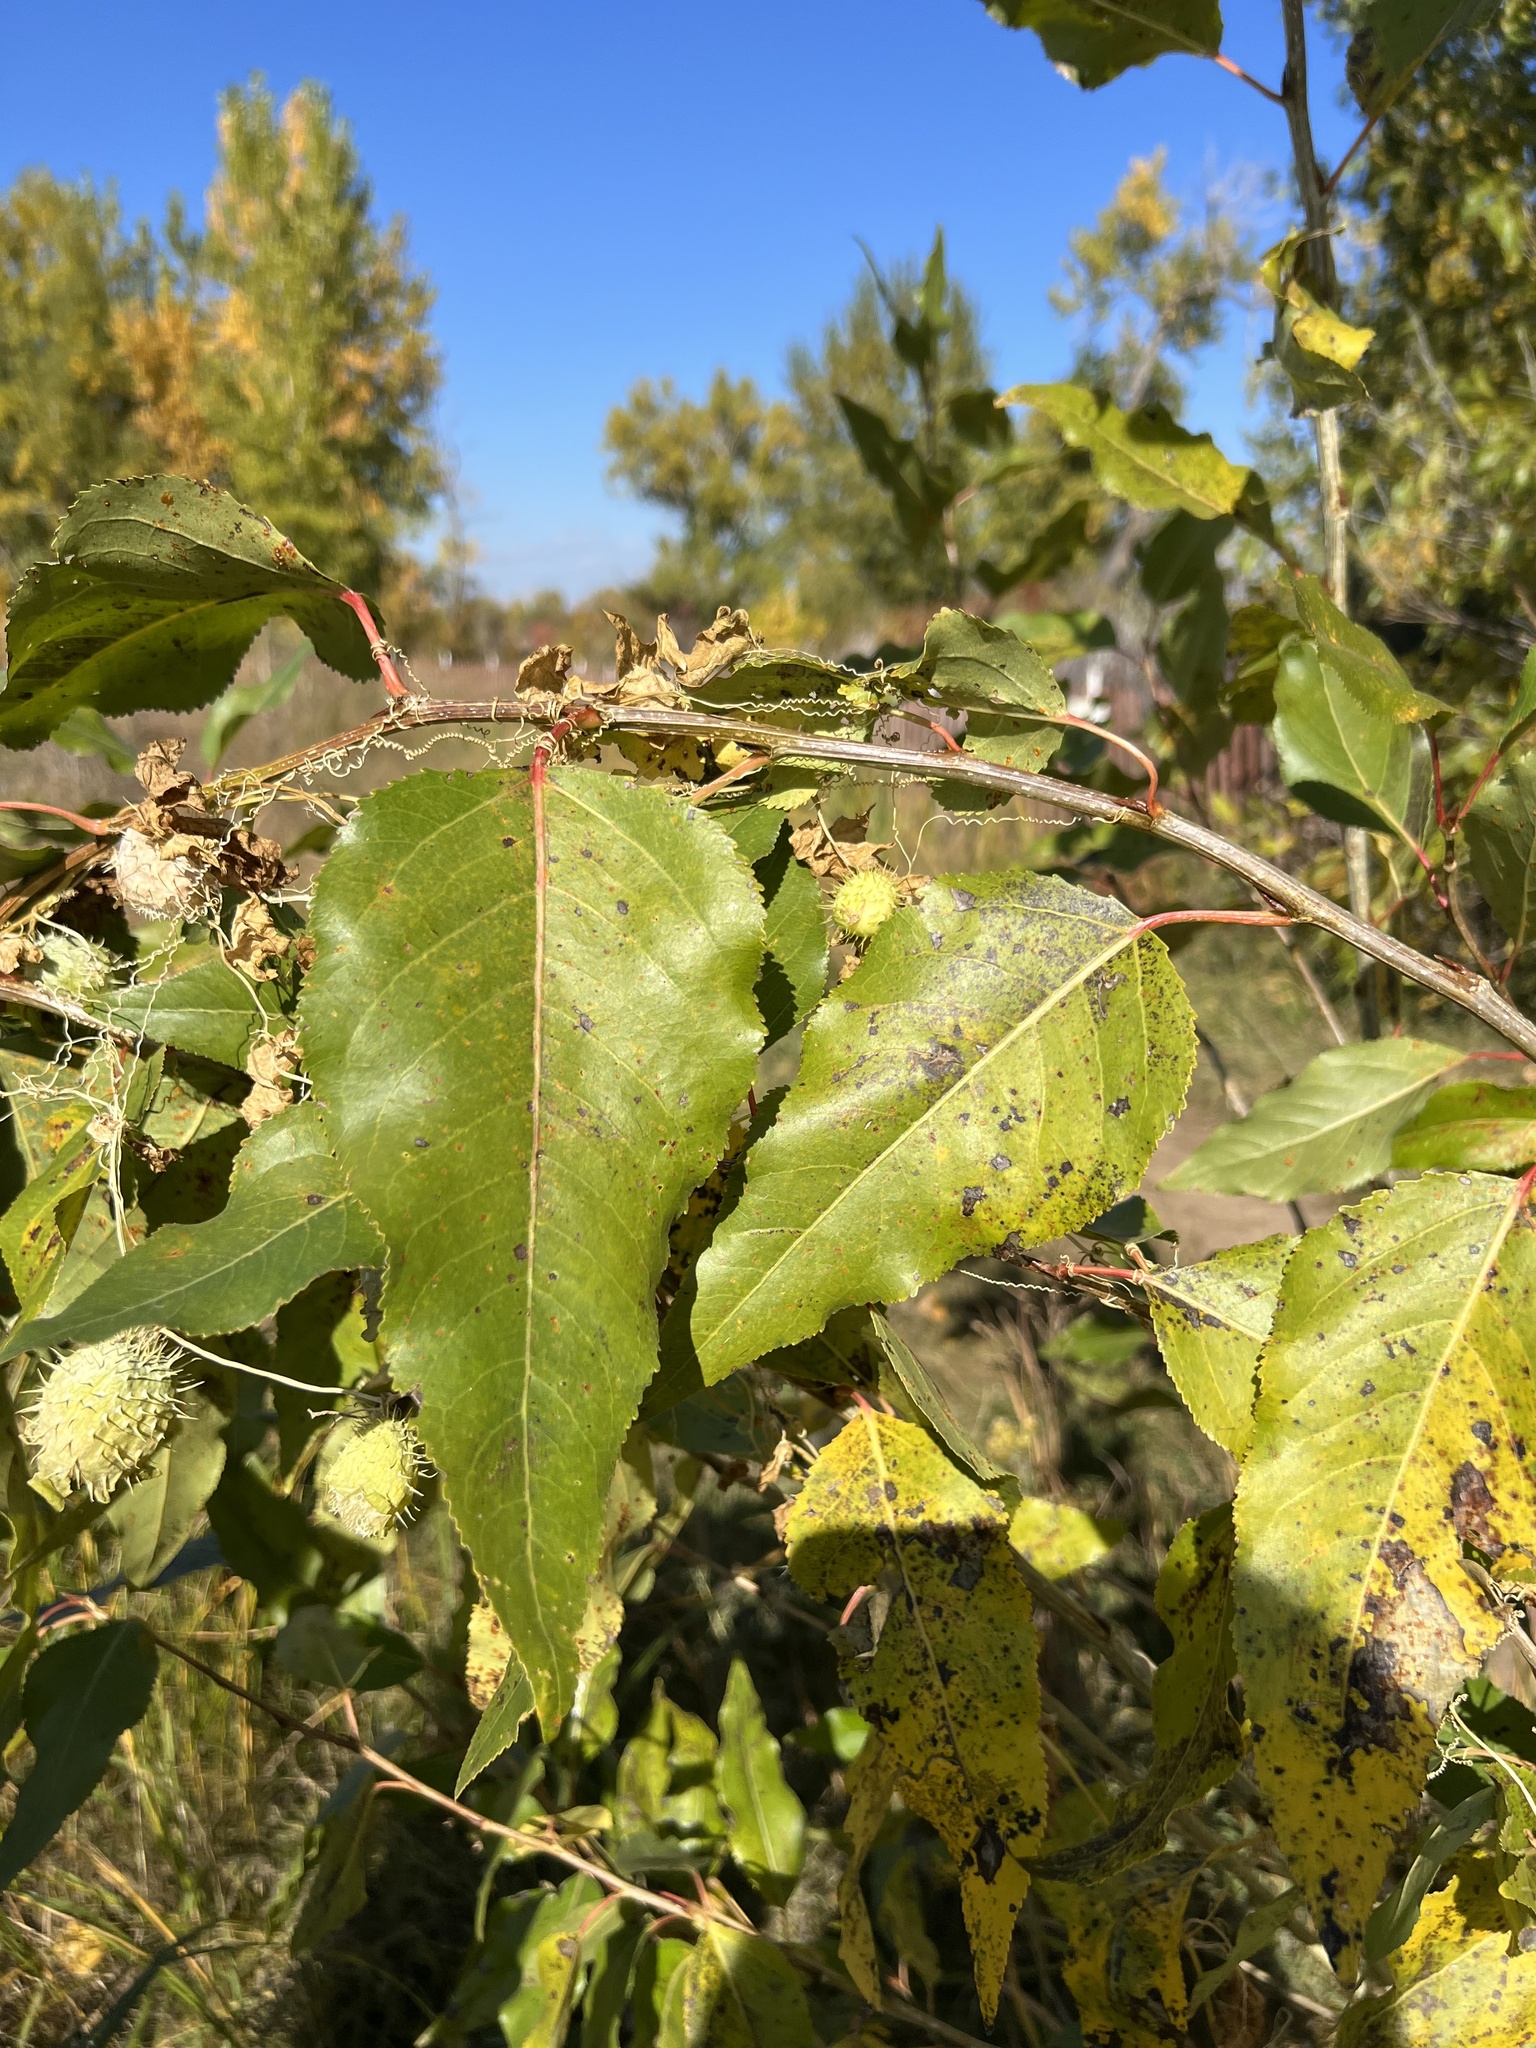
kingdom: Plantae
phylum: Tracheophyta
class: Magnoliopsida
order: Cucurbitales
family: Cucurbitaceae
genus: Echinocystis
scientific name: Echinocystis lobata
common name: Wild cucumber
